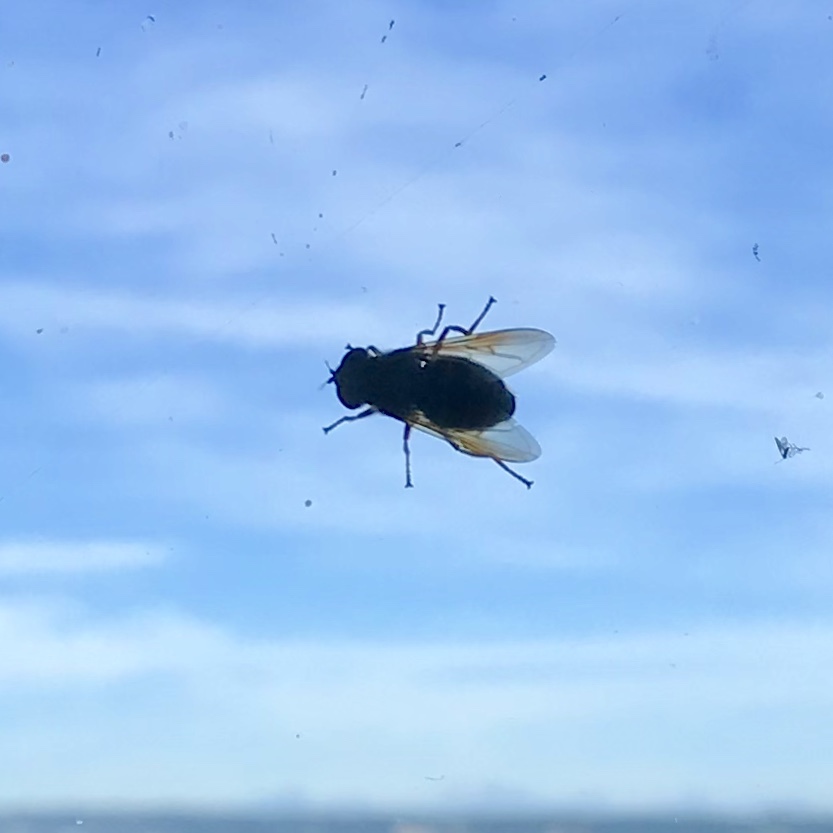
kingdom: Animalia
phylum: Arthropoda
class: Insecta
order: Diptera
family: Syrphidae
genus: Sericomyia
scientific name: Sericomyia chalcopyga
